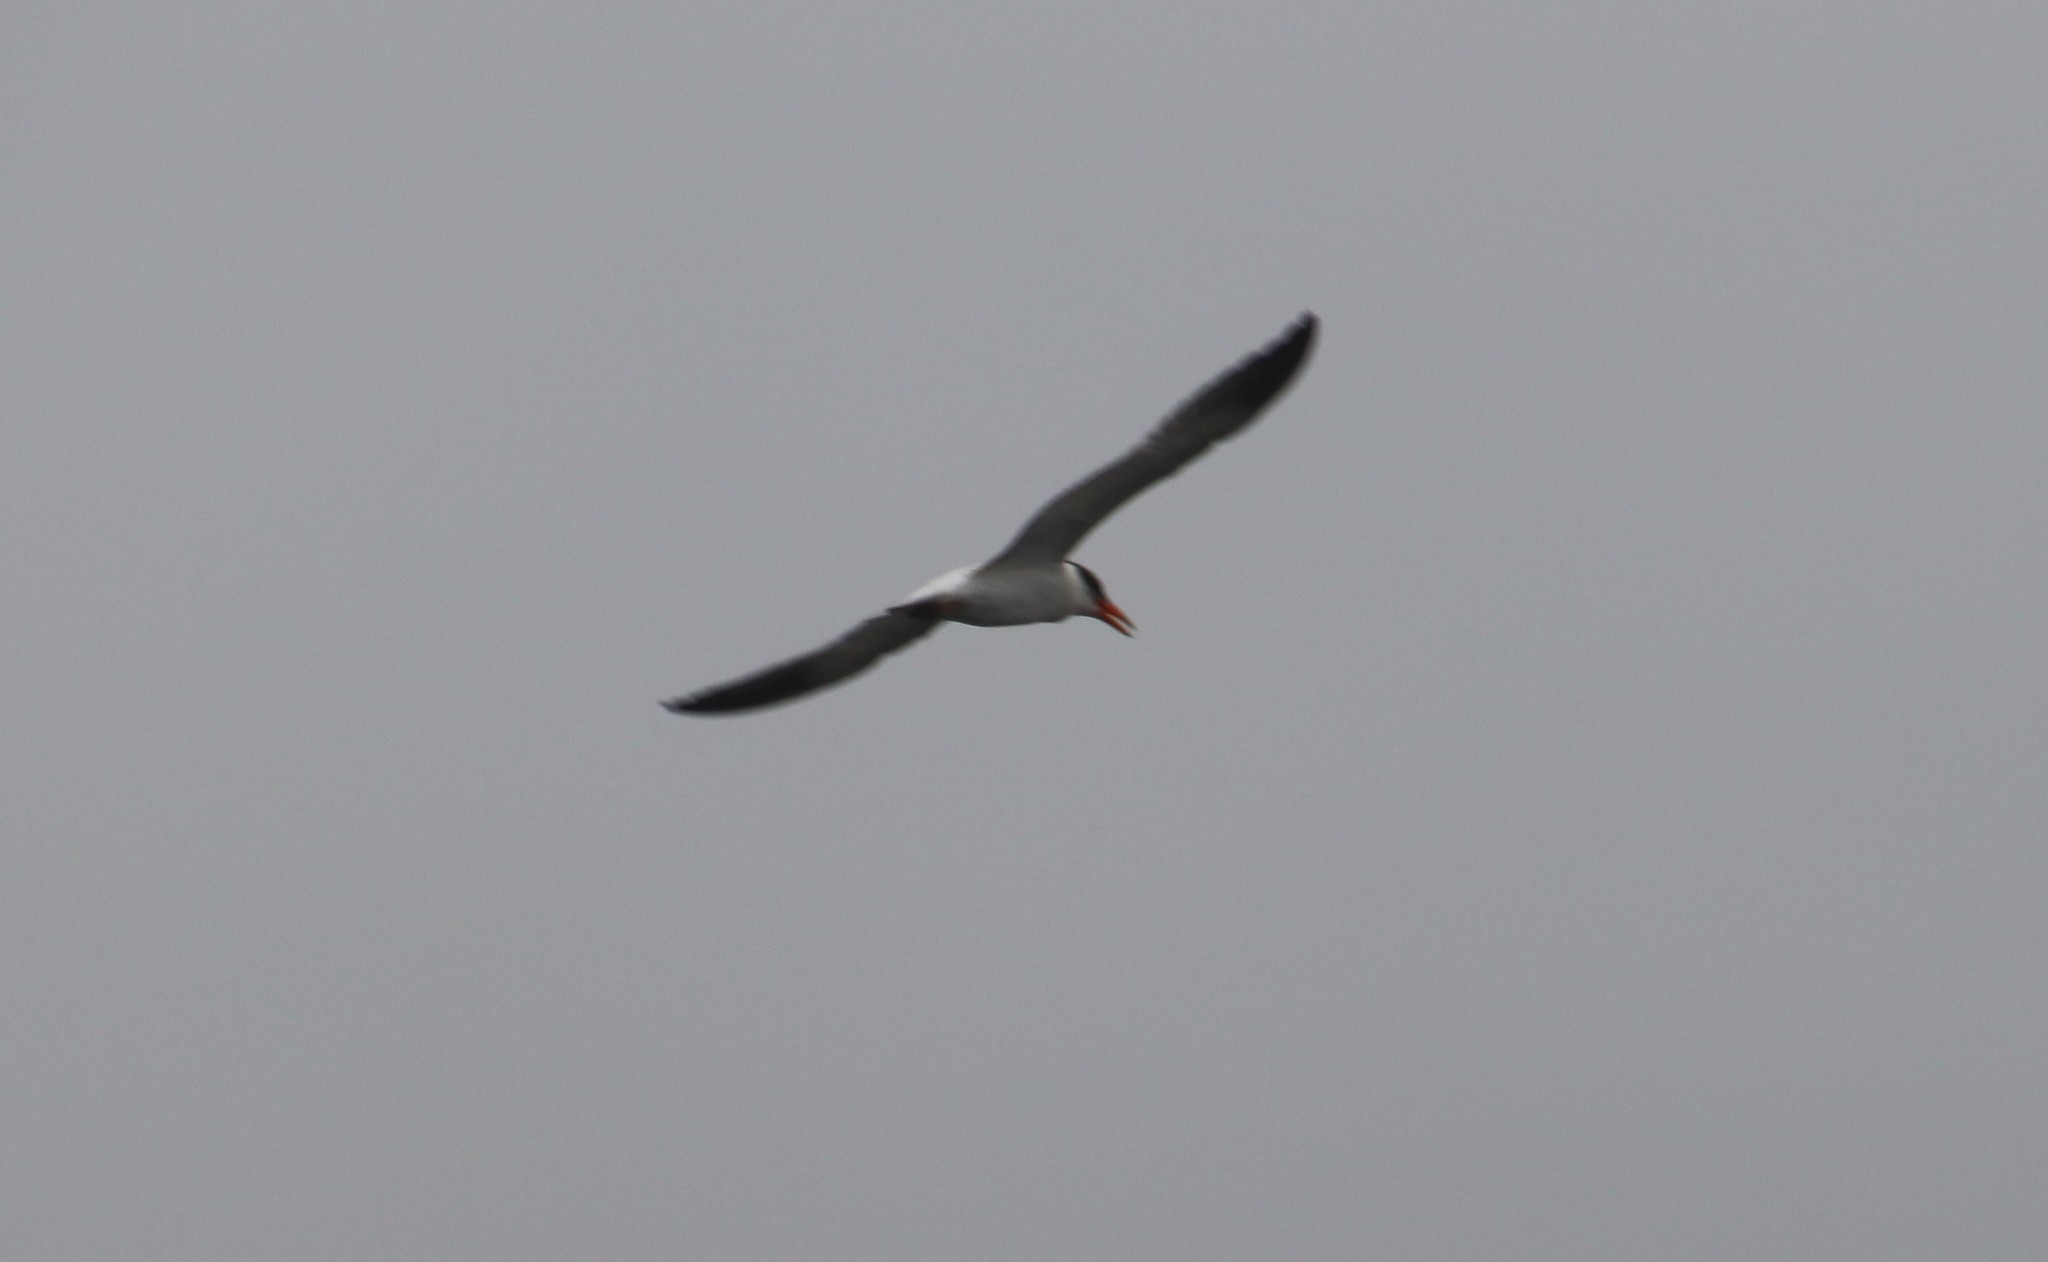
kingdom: Animalia
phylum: Chordata
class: Aves
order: Charadriiformes
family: Laridae
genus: Hydroprogne
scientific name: Hydroprogne caspia
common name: Caspian tern
